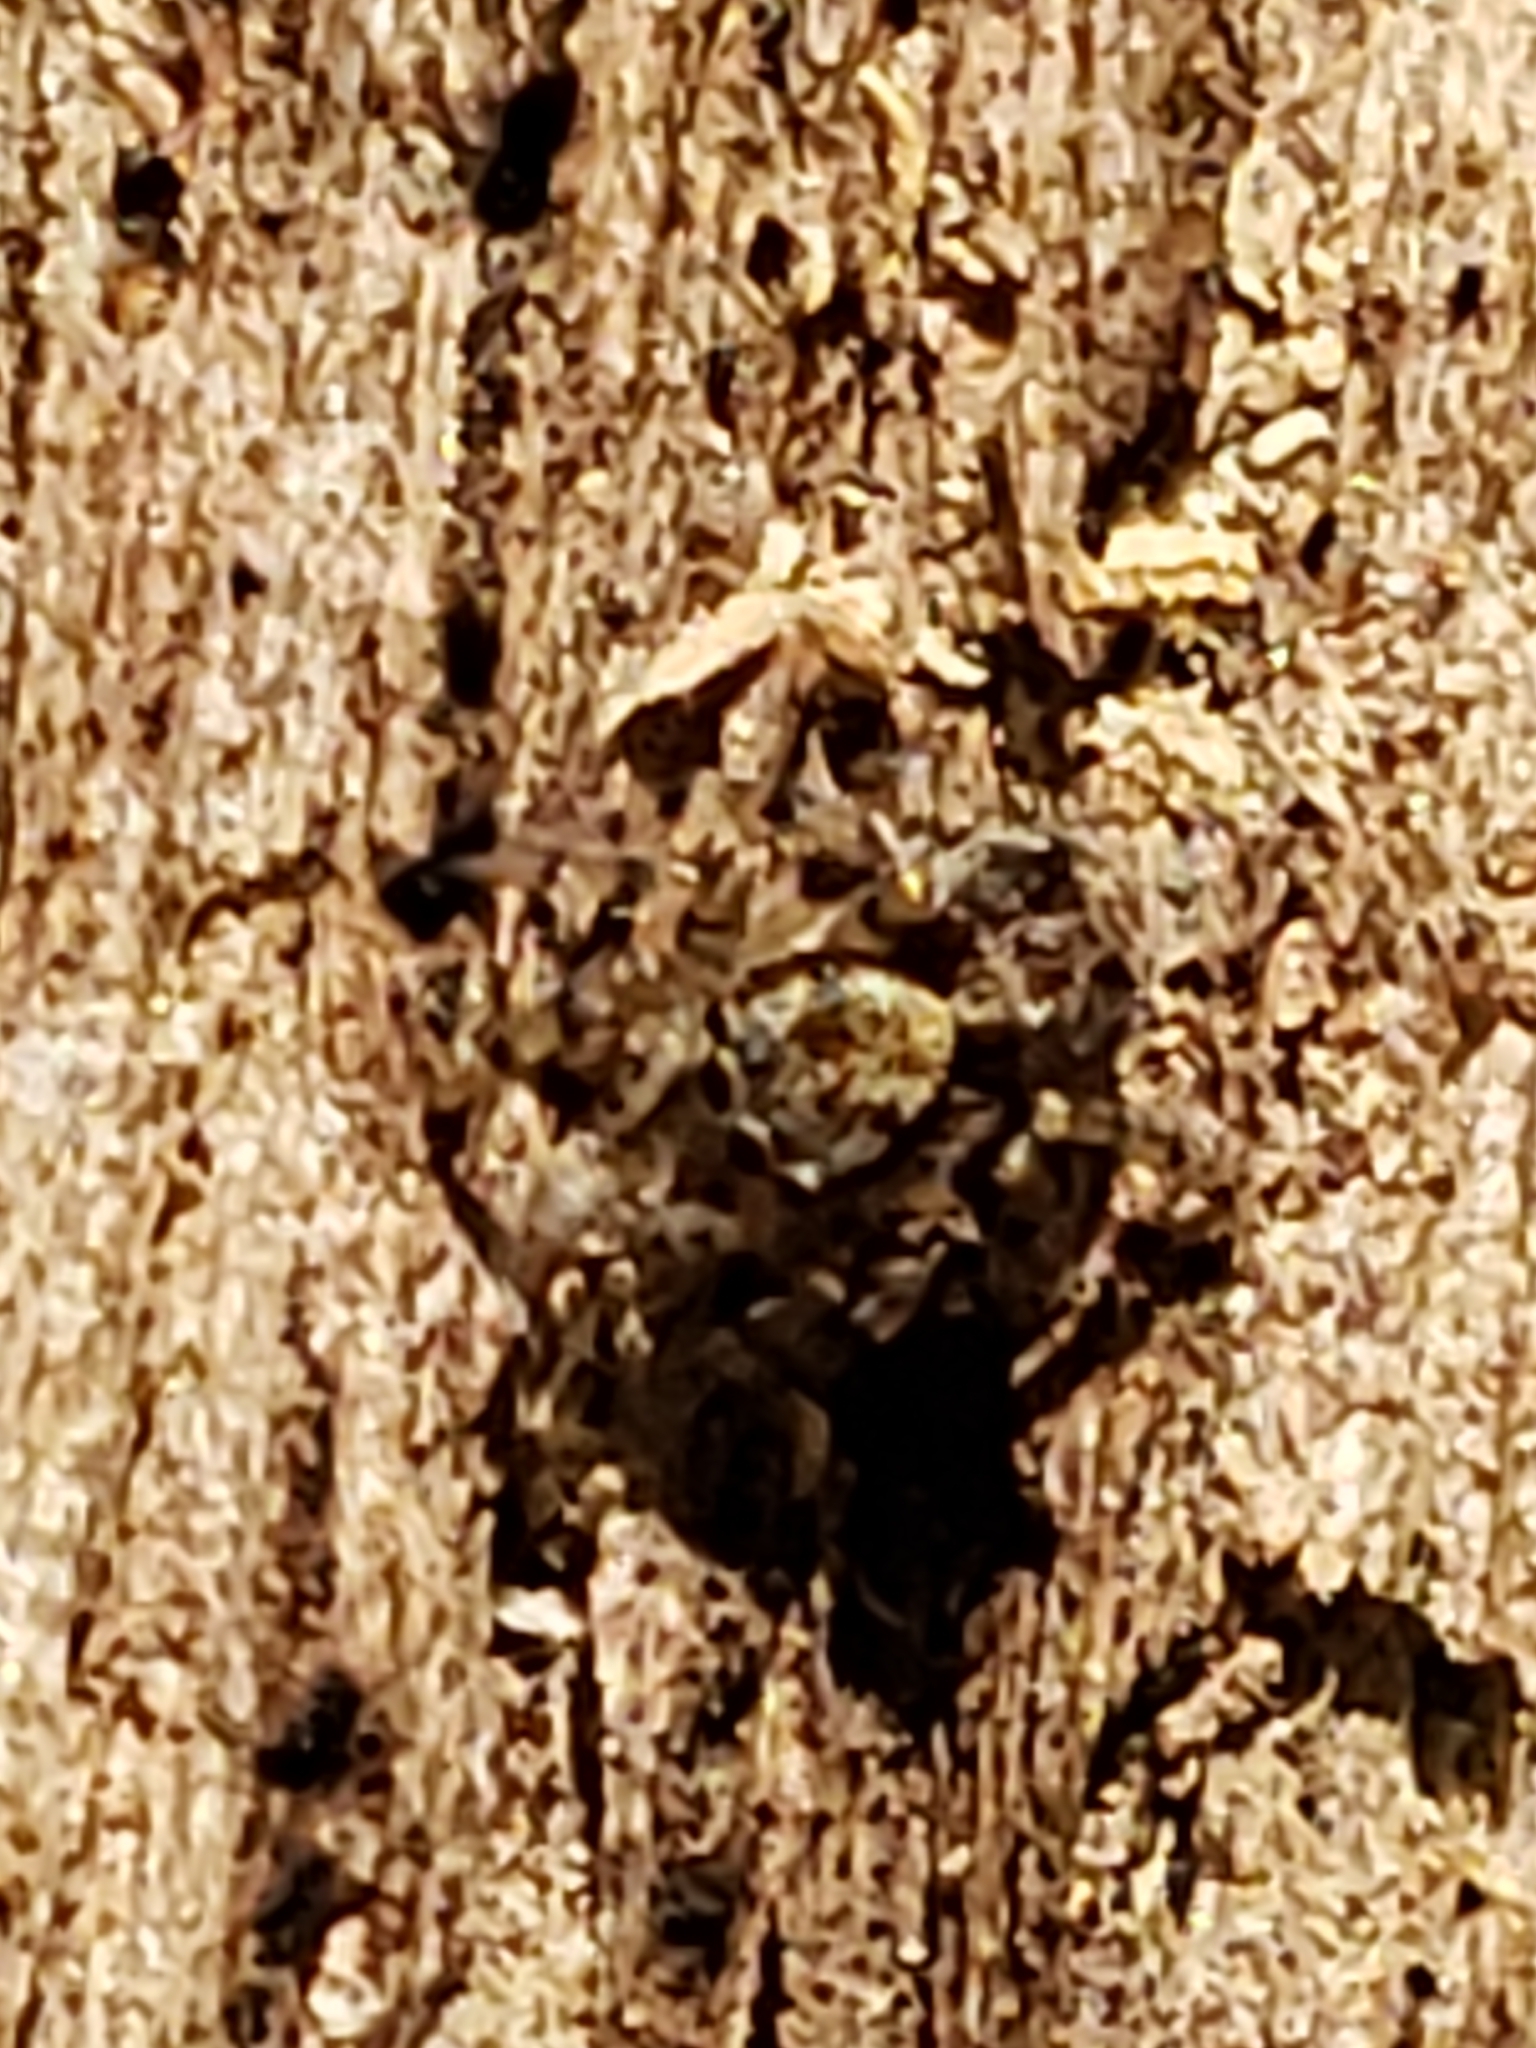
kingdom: Animalia
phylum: Arthropoda
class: Arachnida
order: Araneae
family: Salticidae
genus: Naphrys
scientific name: Naphrys pulex
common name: Flea jumping spider
